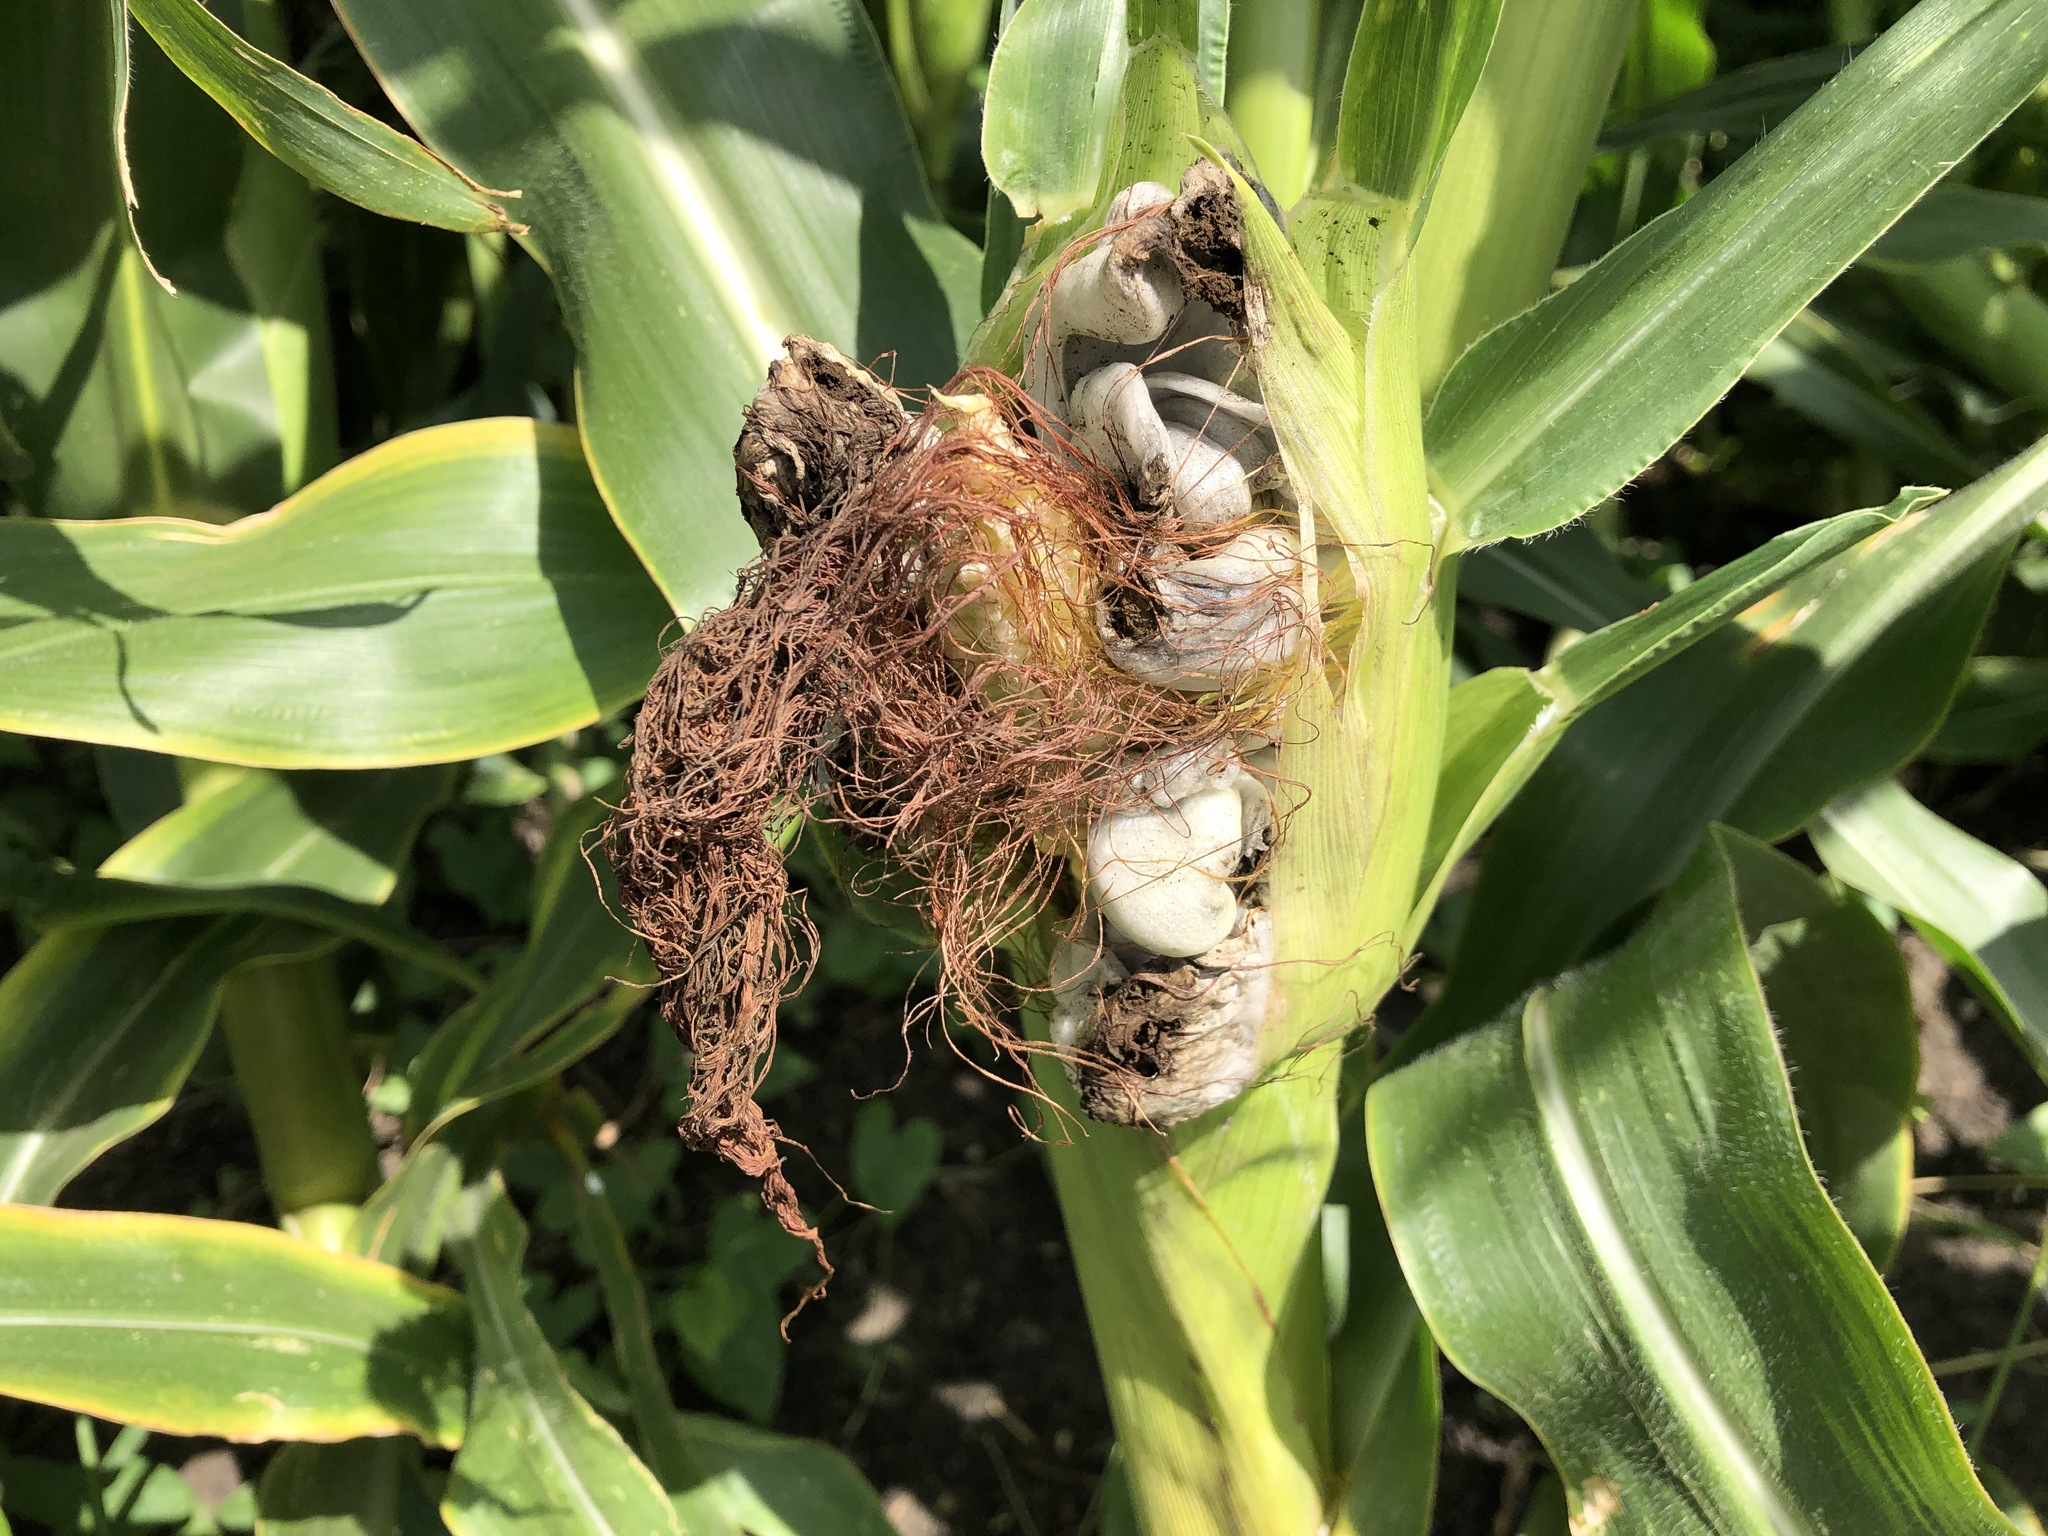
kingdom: Fungi
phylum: Basidiomycota
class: Ustilaginomycetes
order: Ustilaginales
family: Ustilaginaceae
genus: Mycosarcoma
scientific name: Mycosarcoma maydis
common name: Corn smut
